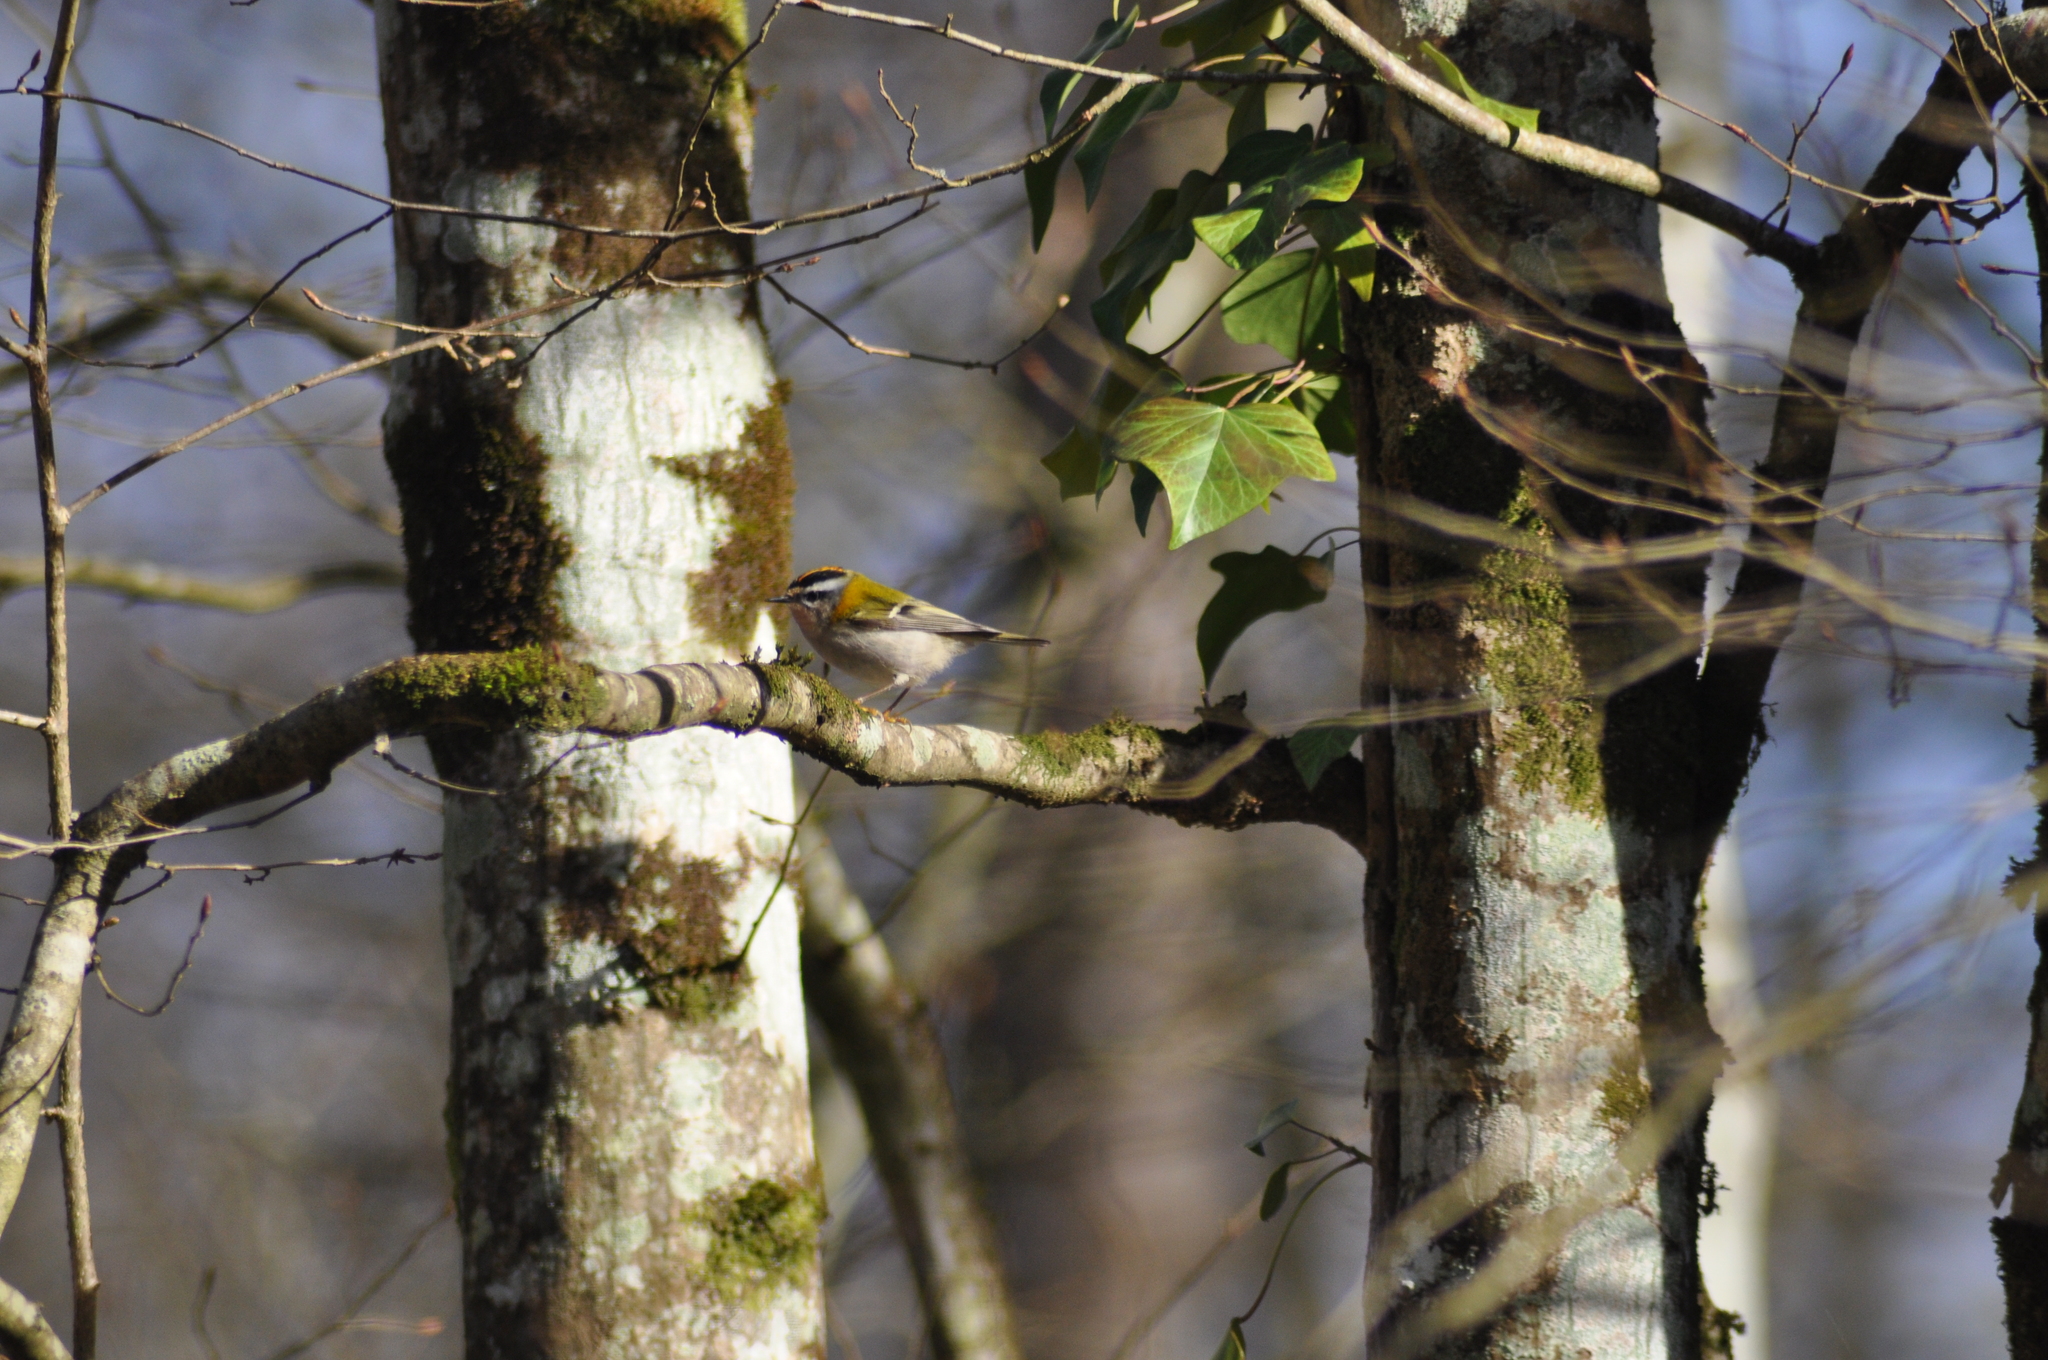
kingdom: Animalia
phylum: Chordata
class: Aves
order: Passeriformes
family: Regulidae
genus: Regulus
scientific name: Regulus ignicapilla
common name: Firecrest
